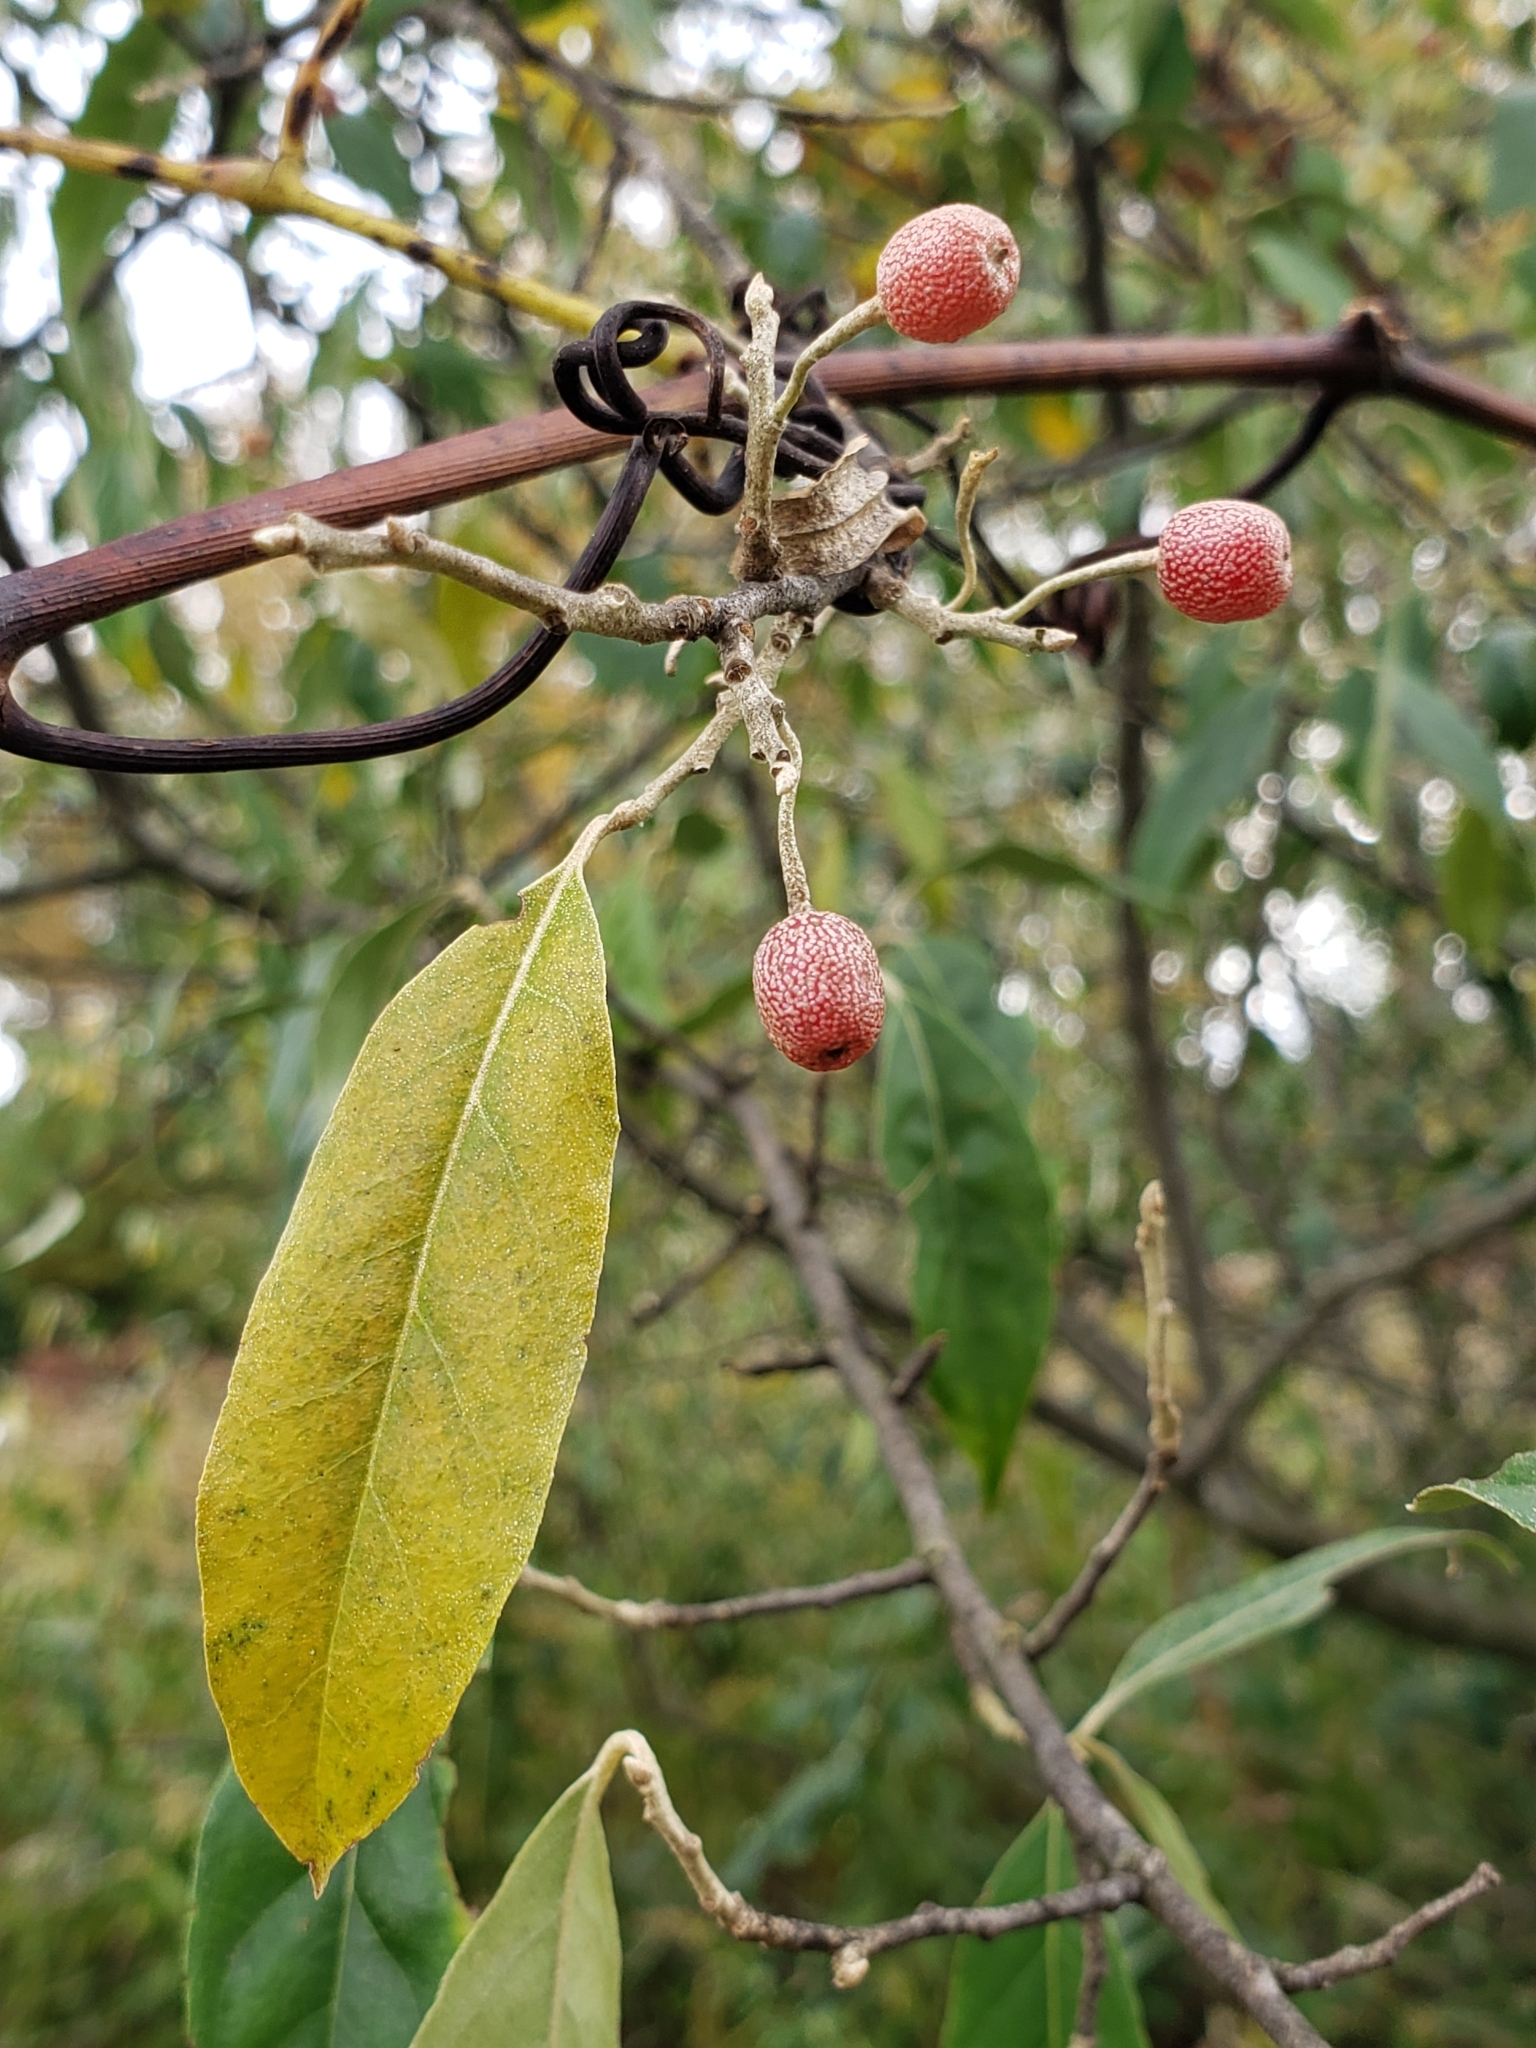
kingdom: Plantae
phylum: Tracheophyta
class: Magnoliopsida
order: Rosales
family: Elaeagnaceae
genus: Elaeagnus
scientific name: Elaeagnus umbellata
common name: Autumn olive
